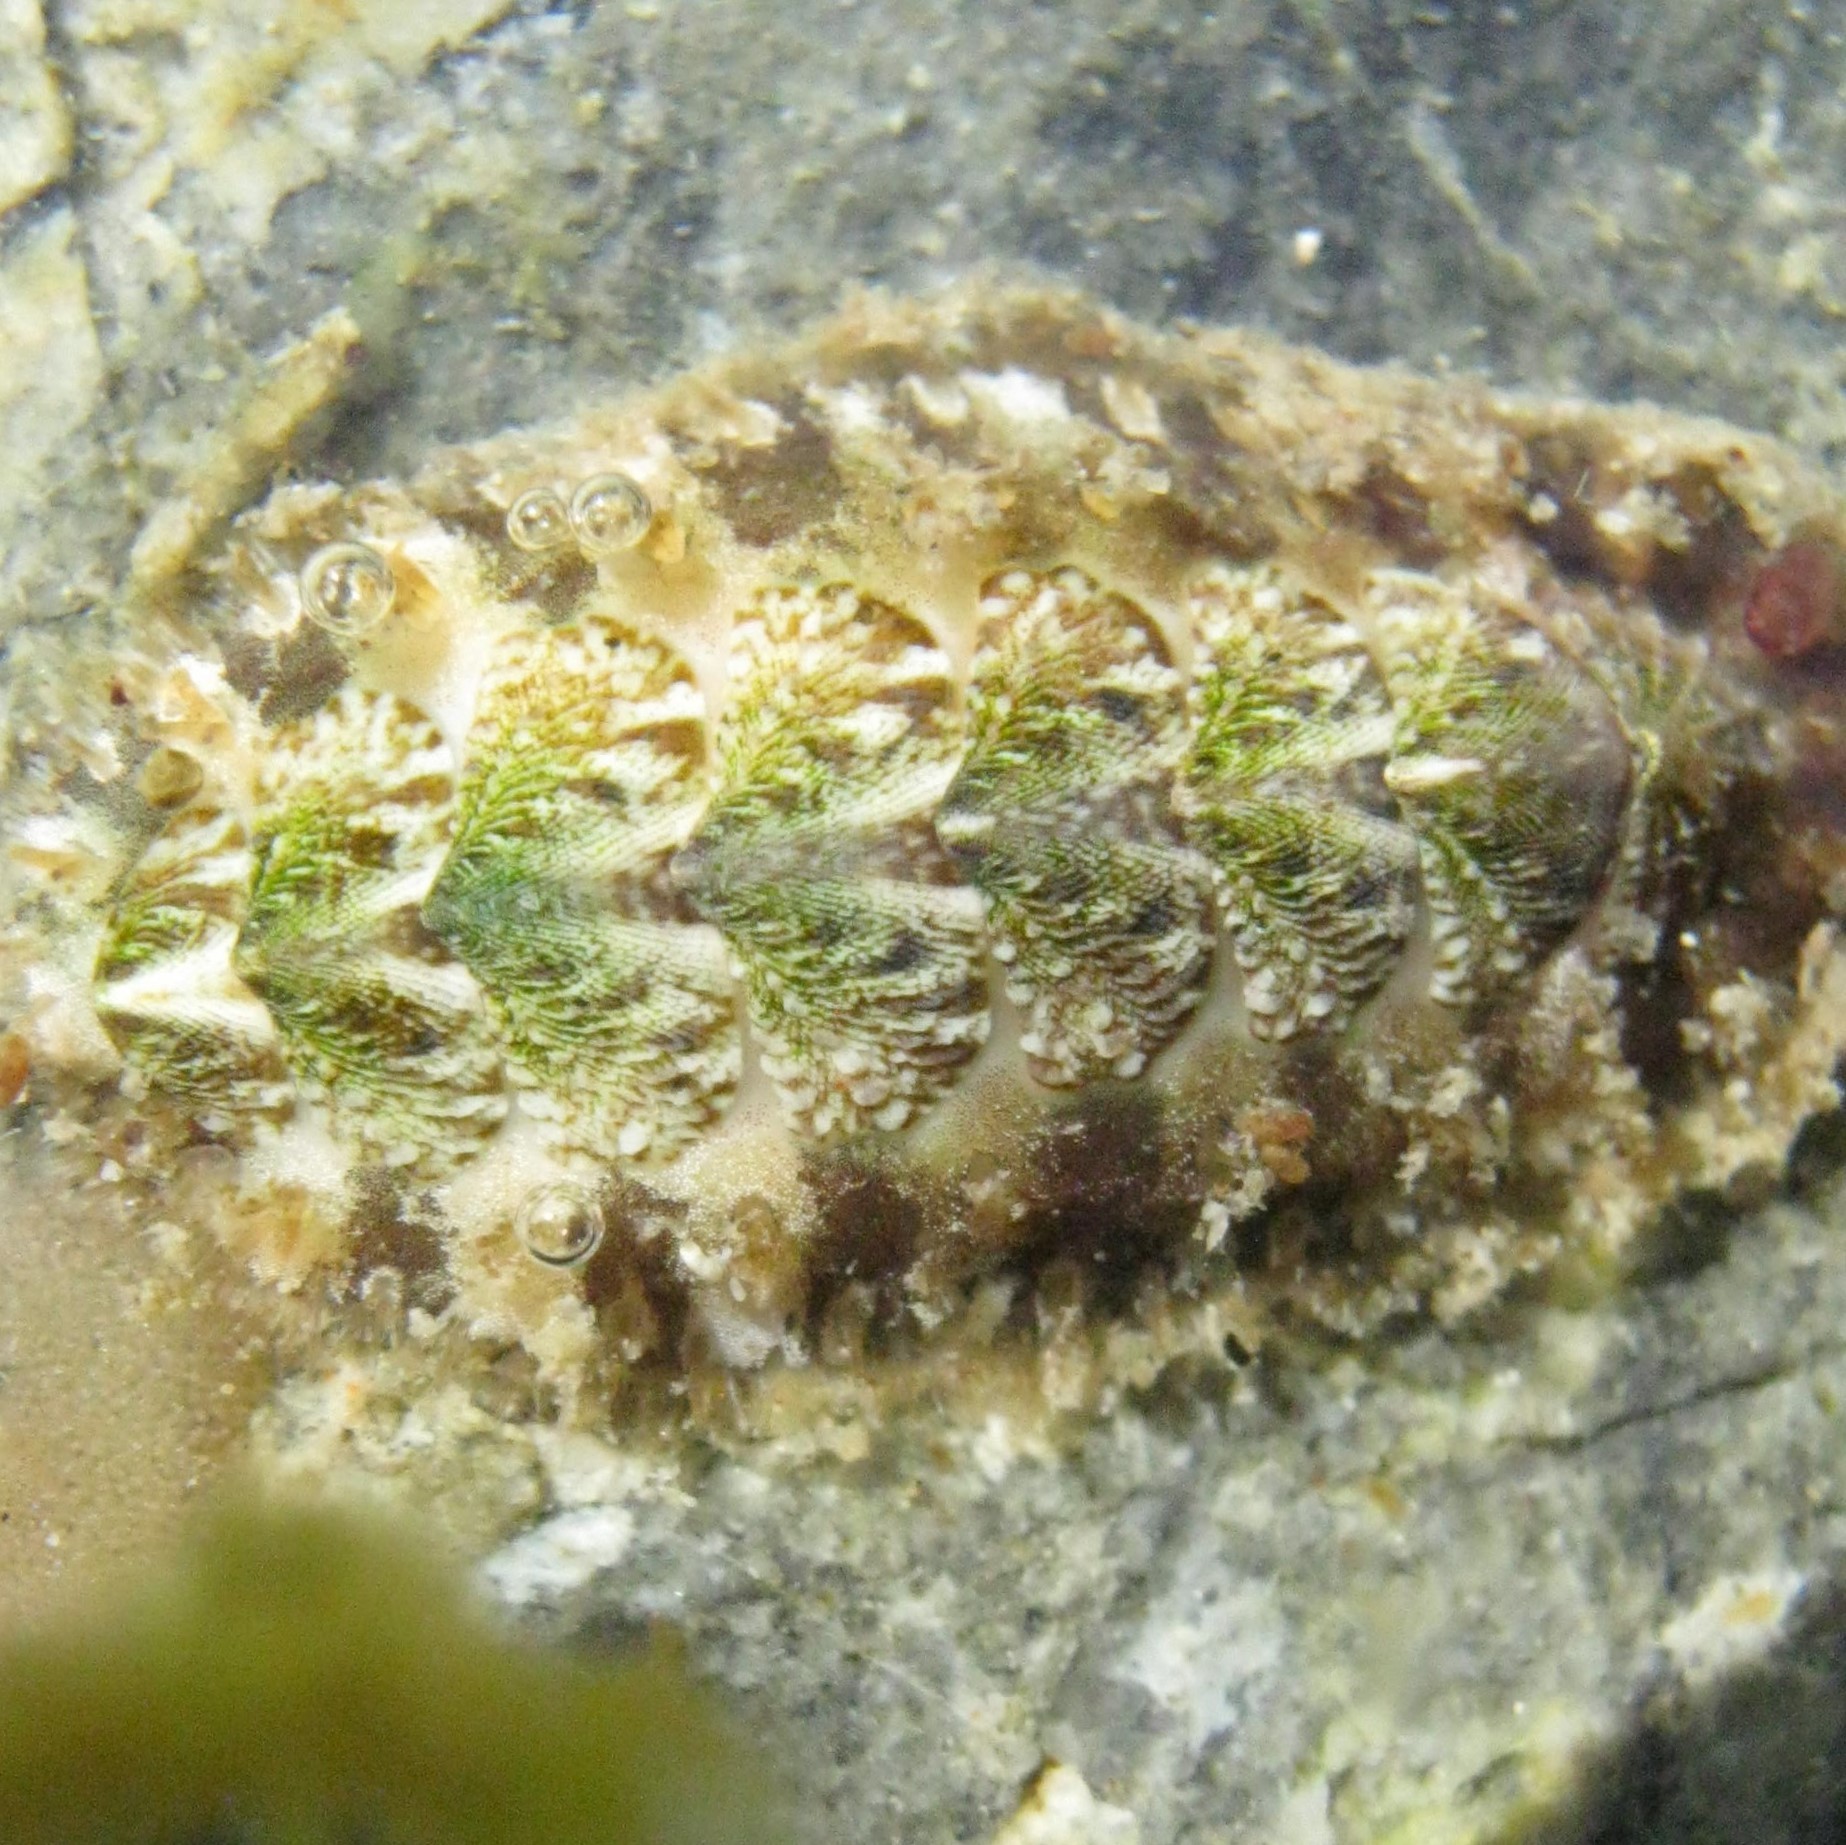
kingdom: Animalia
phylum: Mollusca
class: Polyplacophora
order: Chitonida
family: Mopaliidae
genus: Plaxiphora
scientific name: Plaxiphora caelata
